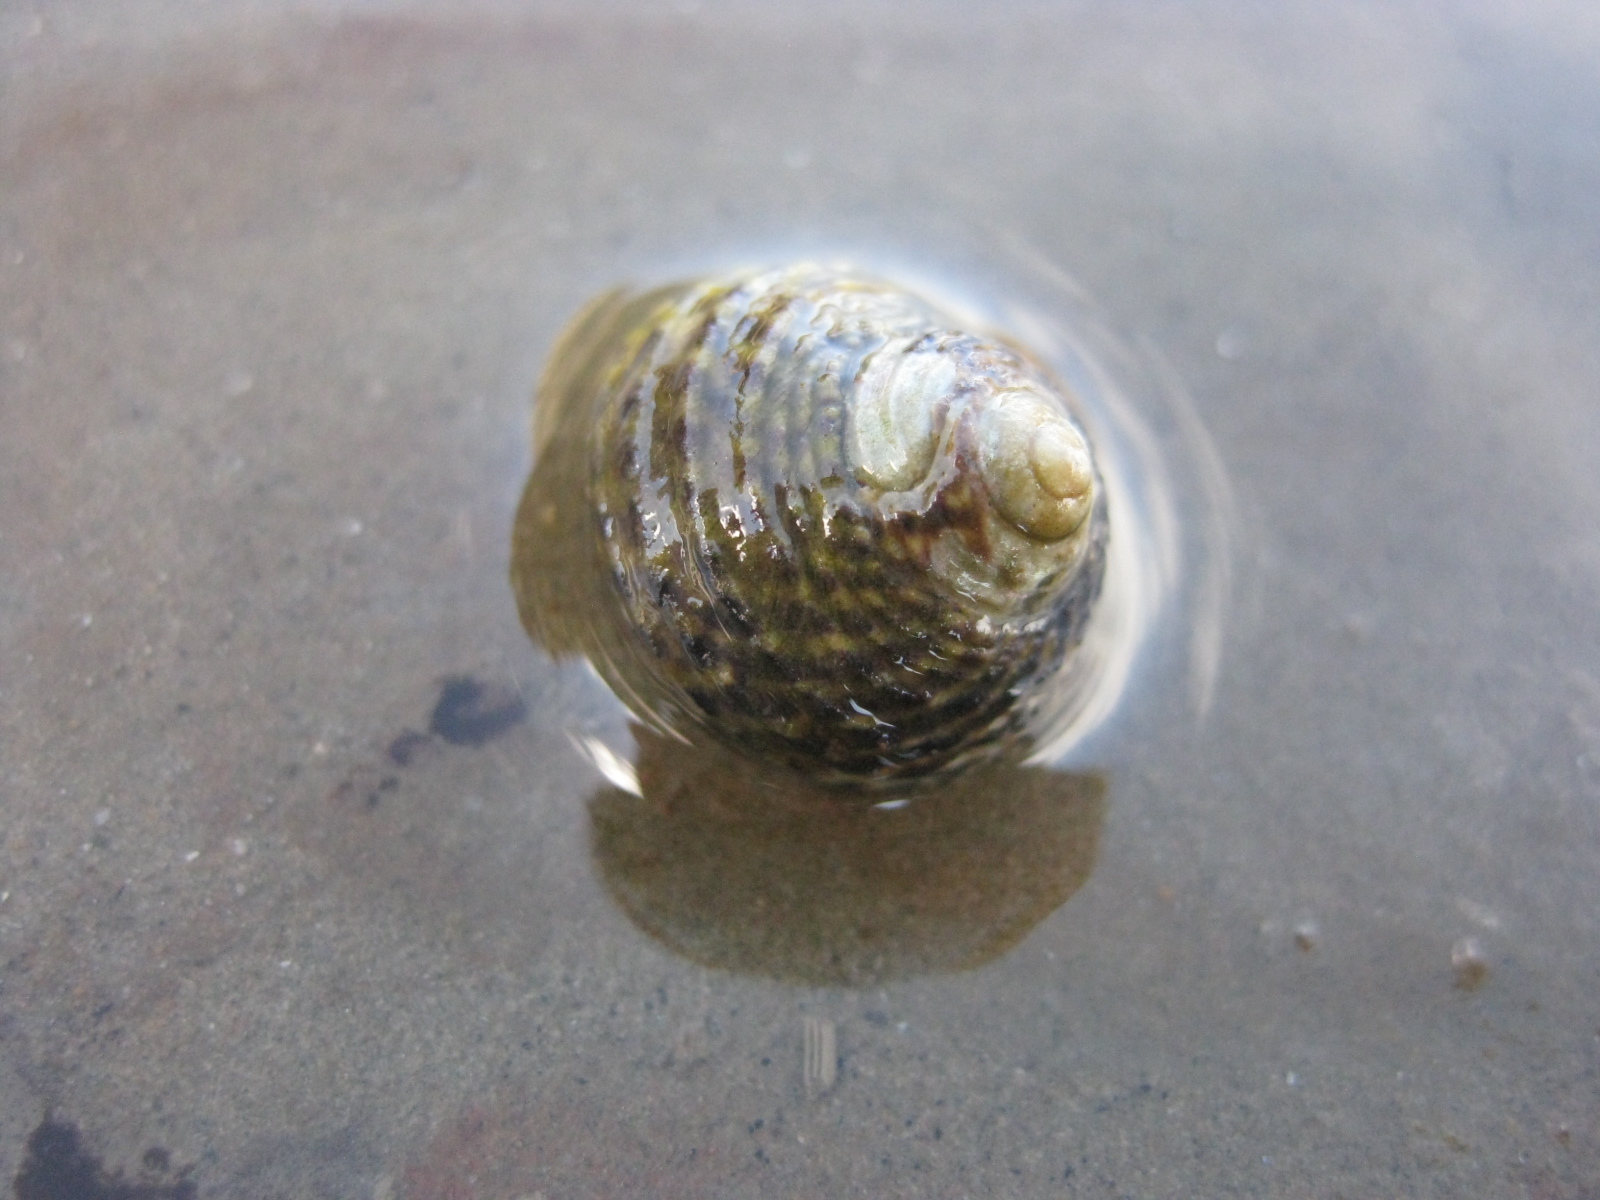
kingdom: Animalia
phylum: Mollusca
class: Gastropoda
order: Trochida
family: Trochidae
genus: Diloma
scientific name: Diloma subrostratum
